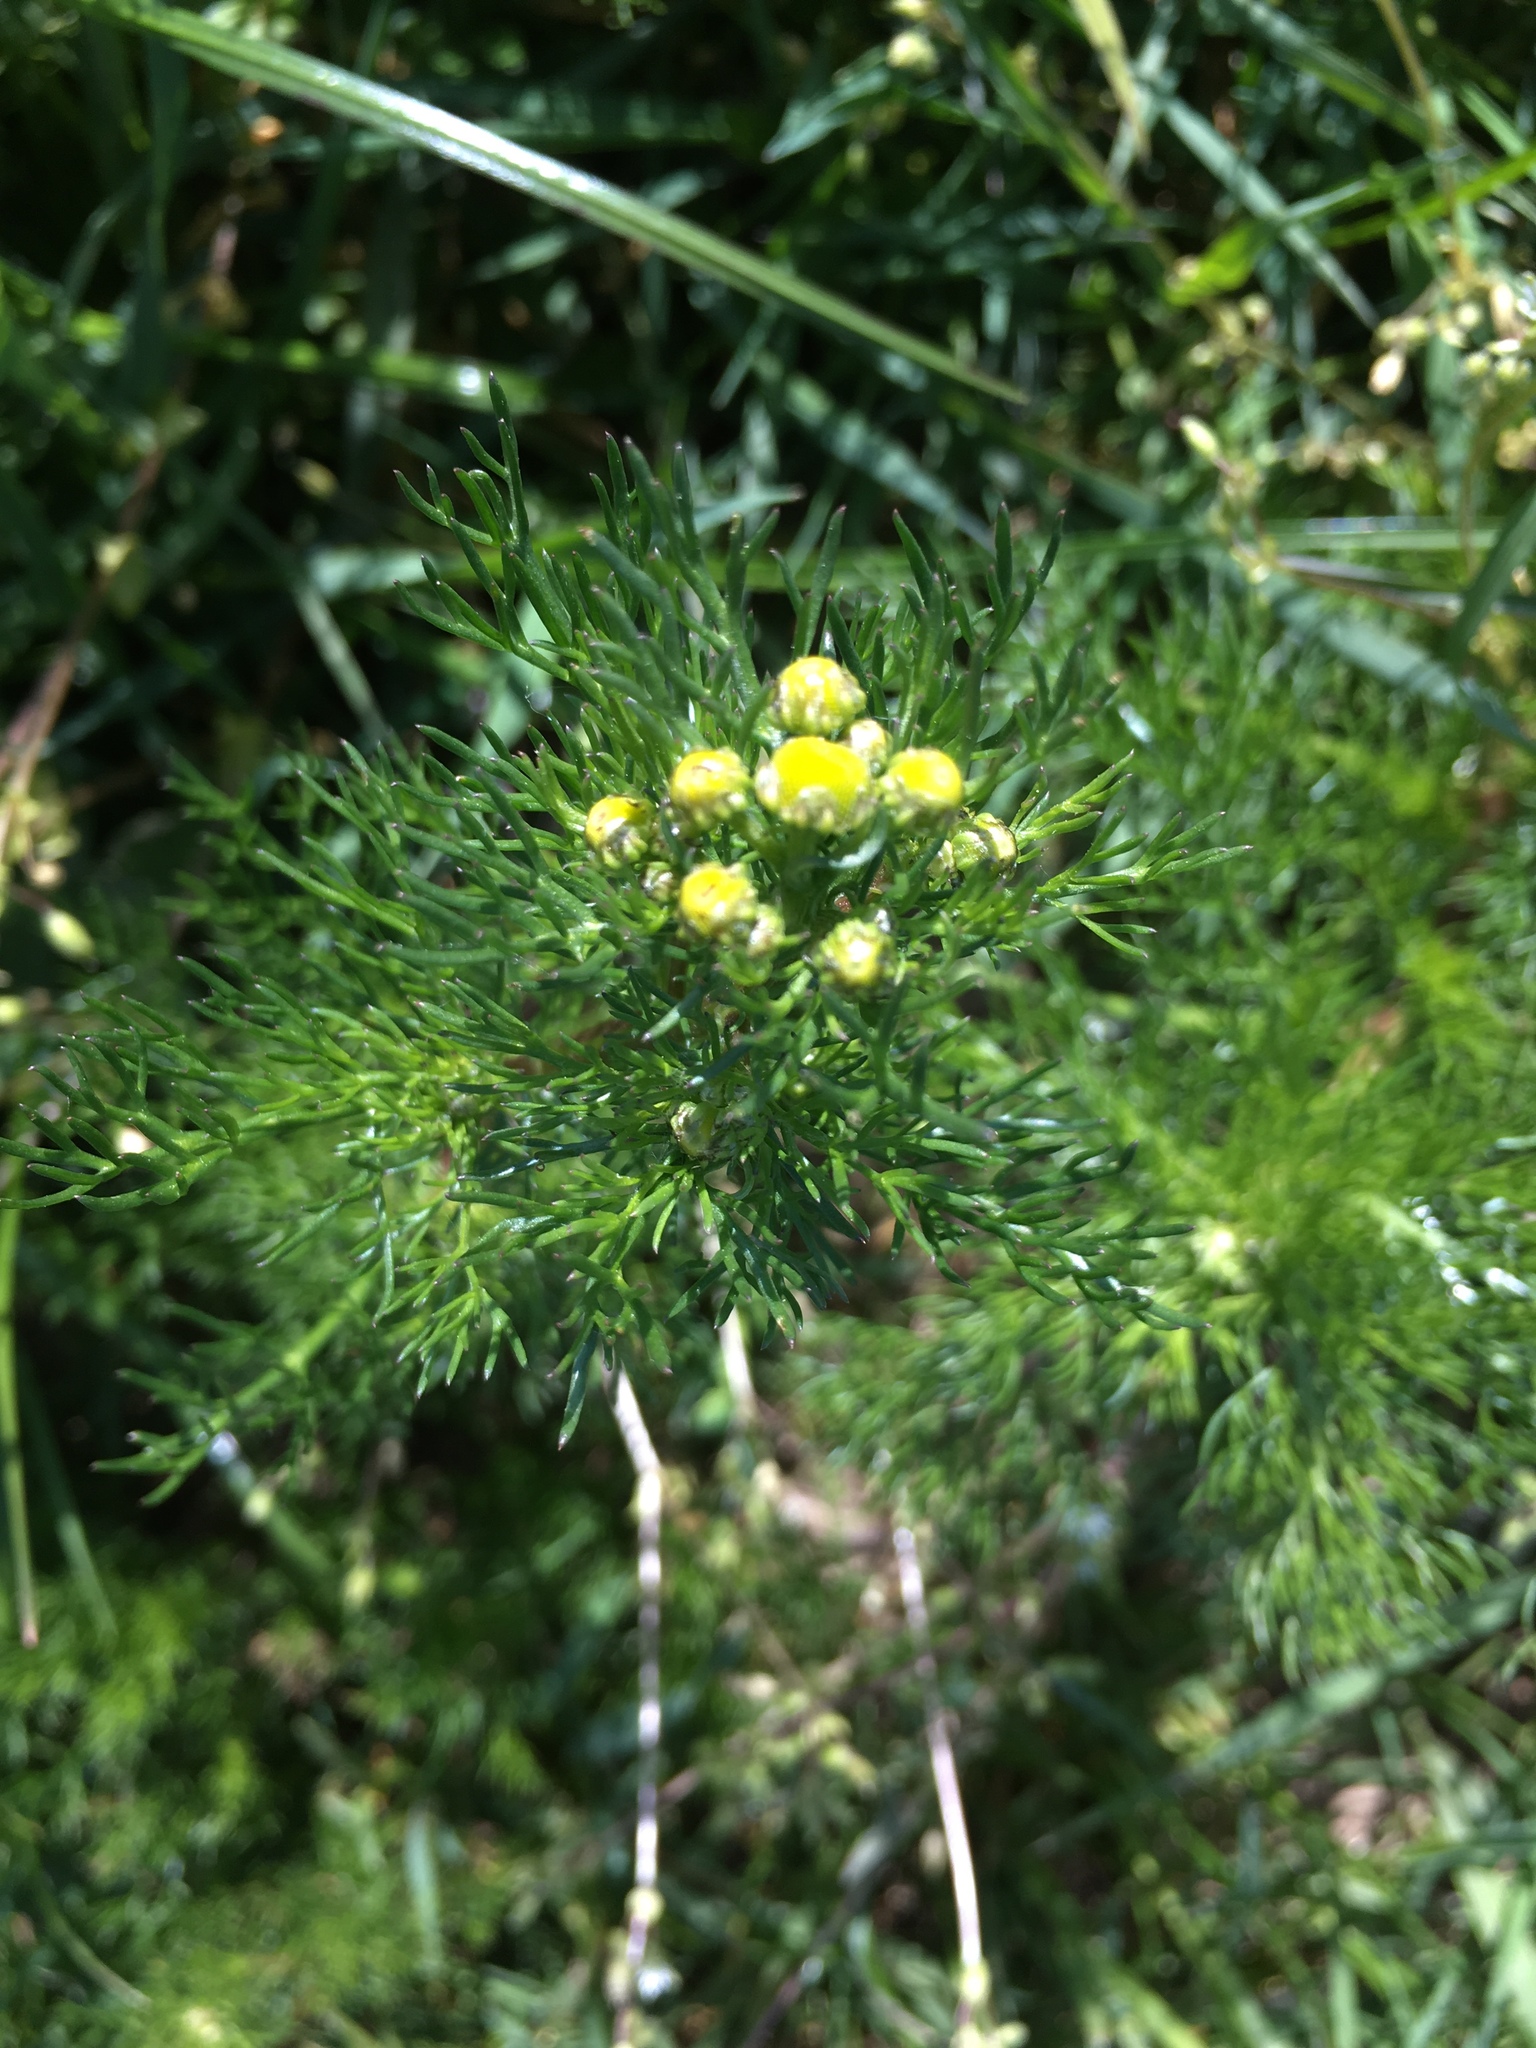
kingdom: Plantae
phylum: Tracheophyta
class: Magnoliopsida
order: Asterales
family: Asteraceae
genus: Matricaria
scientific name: Matricaria discoidea
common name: Disc mayweed
